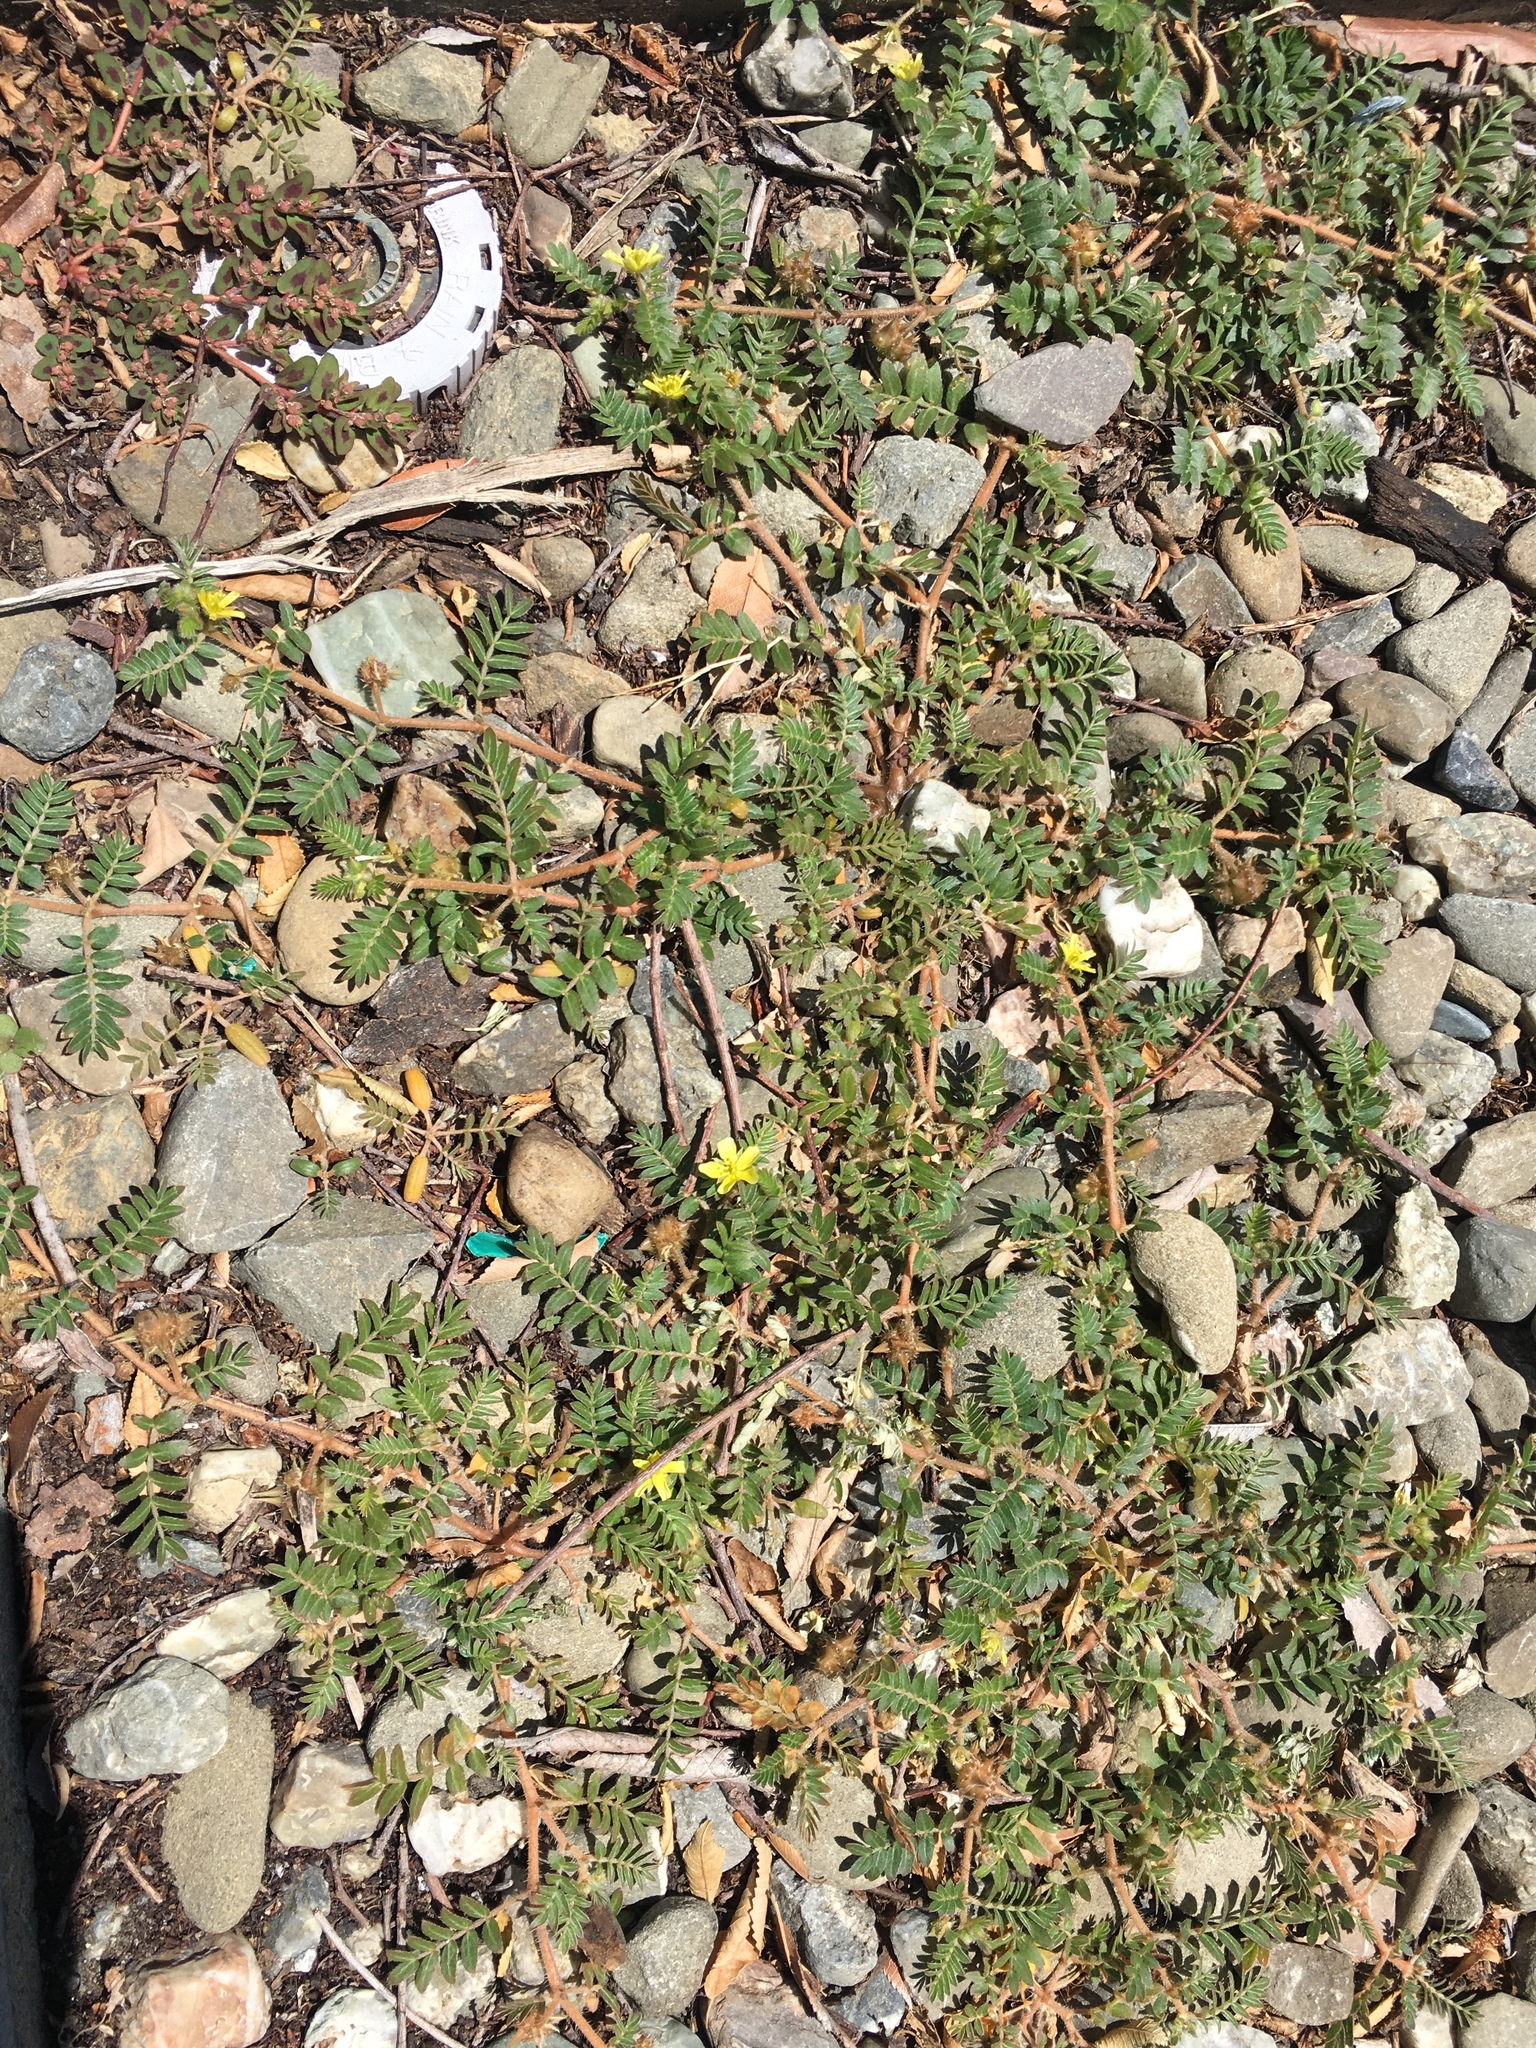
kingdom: Plantae
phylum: Tracheophyta
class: Magnoliopsida
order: Zygophyllales
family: Zygophyllaceae
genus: Tribulus
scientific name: Tribulus terrestris
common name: Puncturevine
